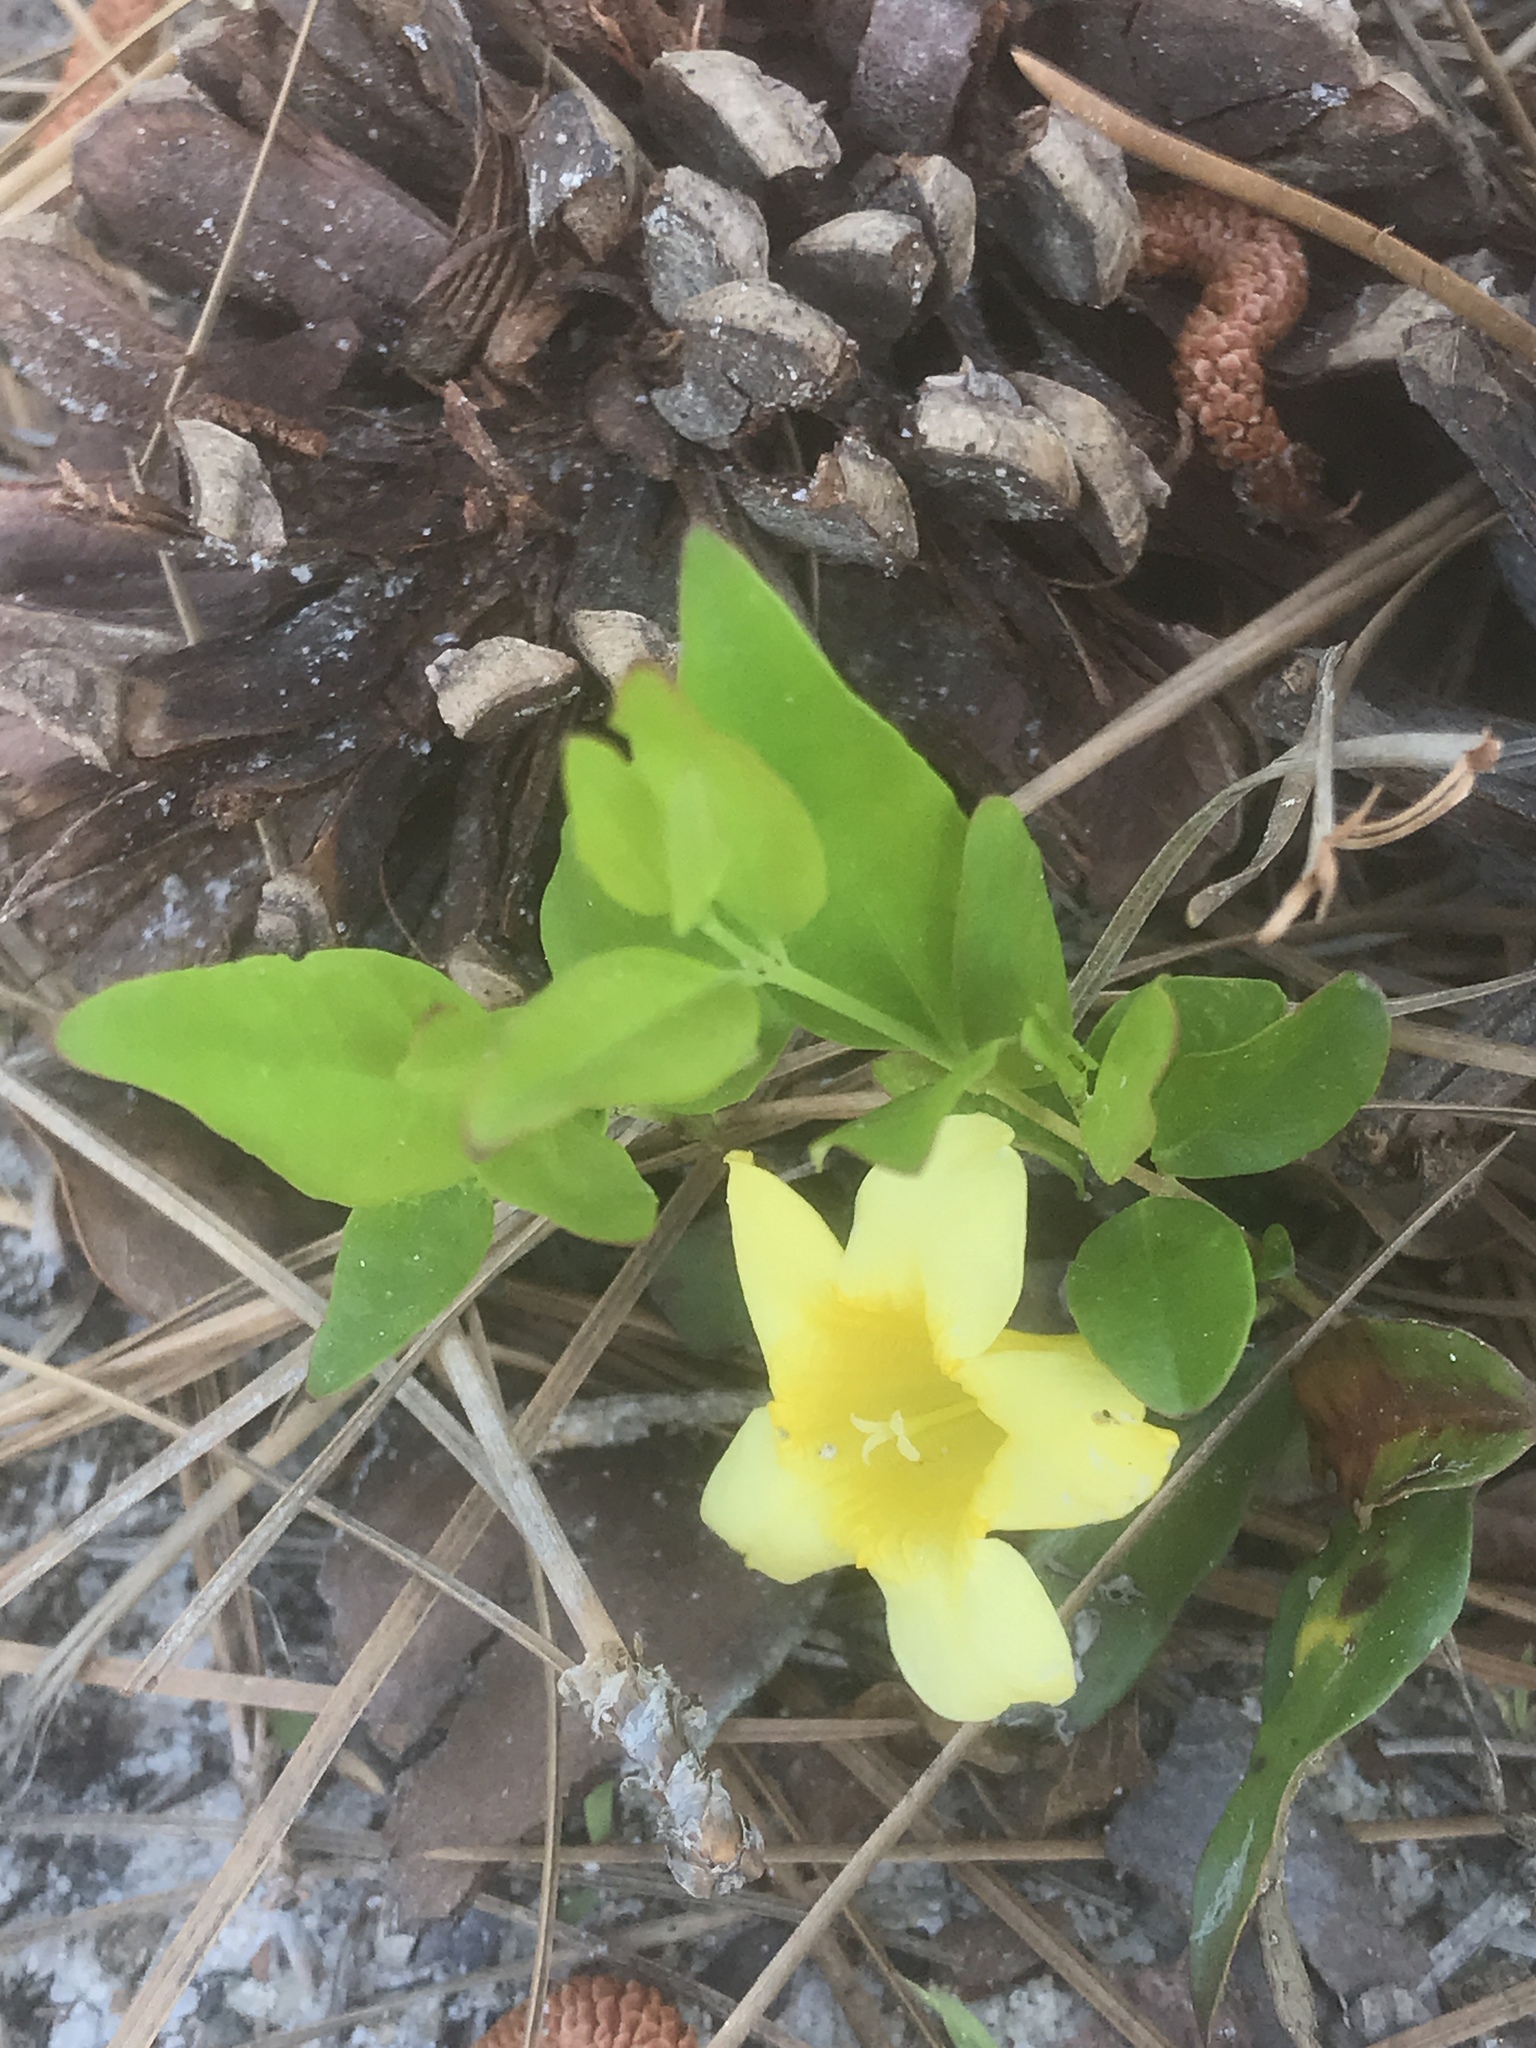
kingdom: Plantae
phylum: Tracheophyta
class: Magnoliopsida
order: Gentianales
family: Gelsemiaceae
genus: Gelsemium
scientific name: Gelsemium sempervirens
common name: Carolina-jasmine
